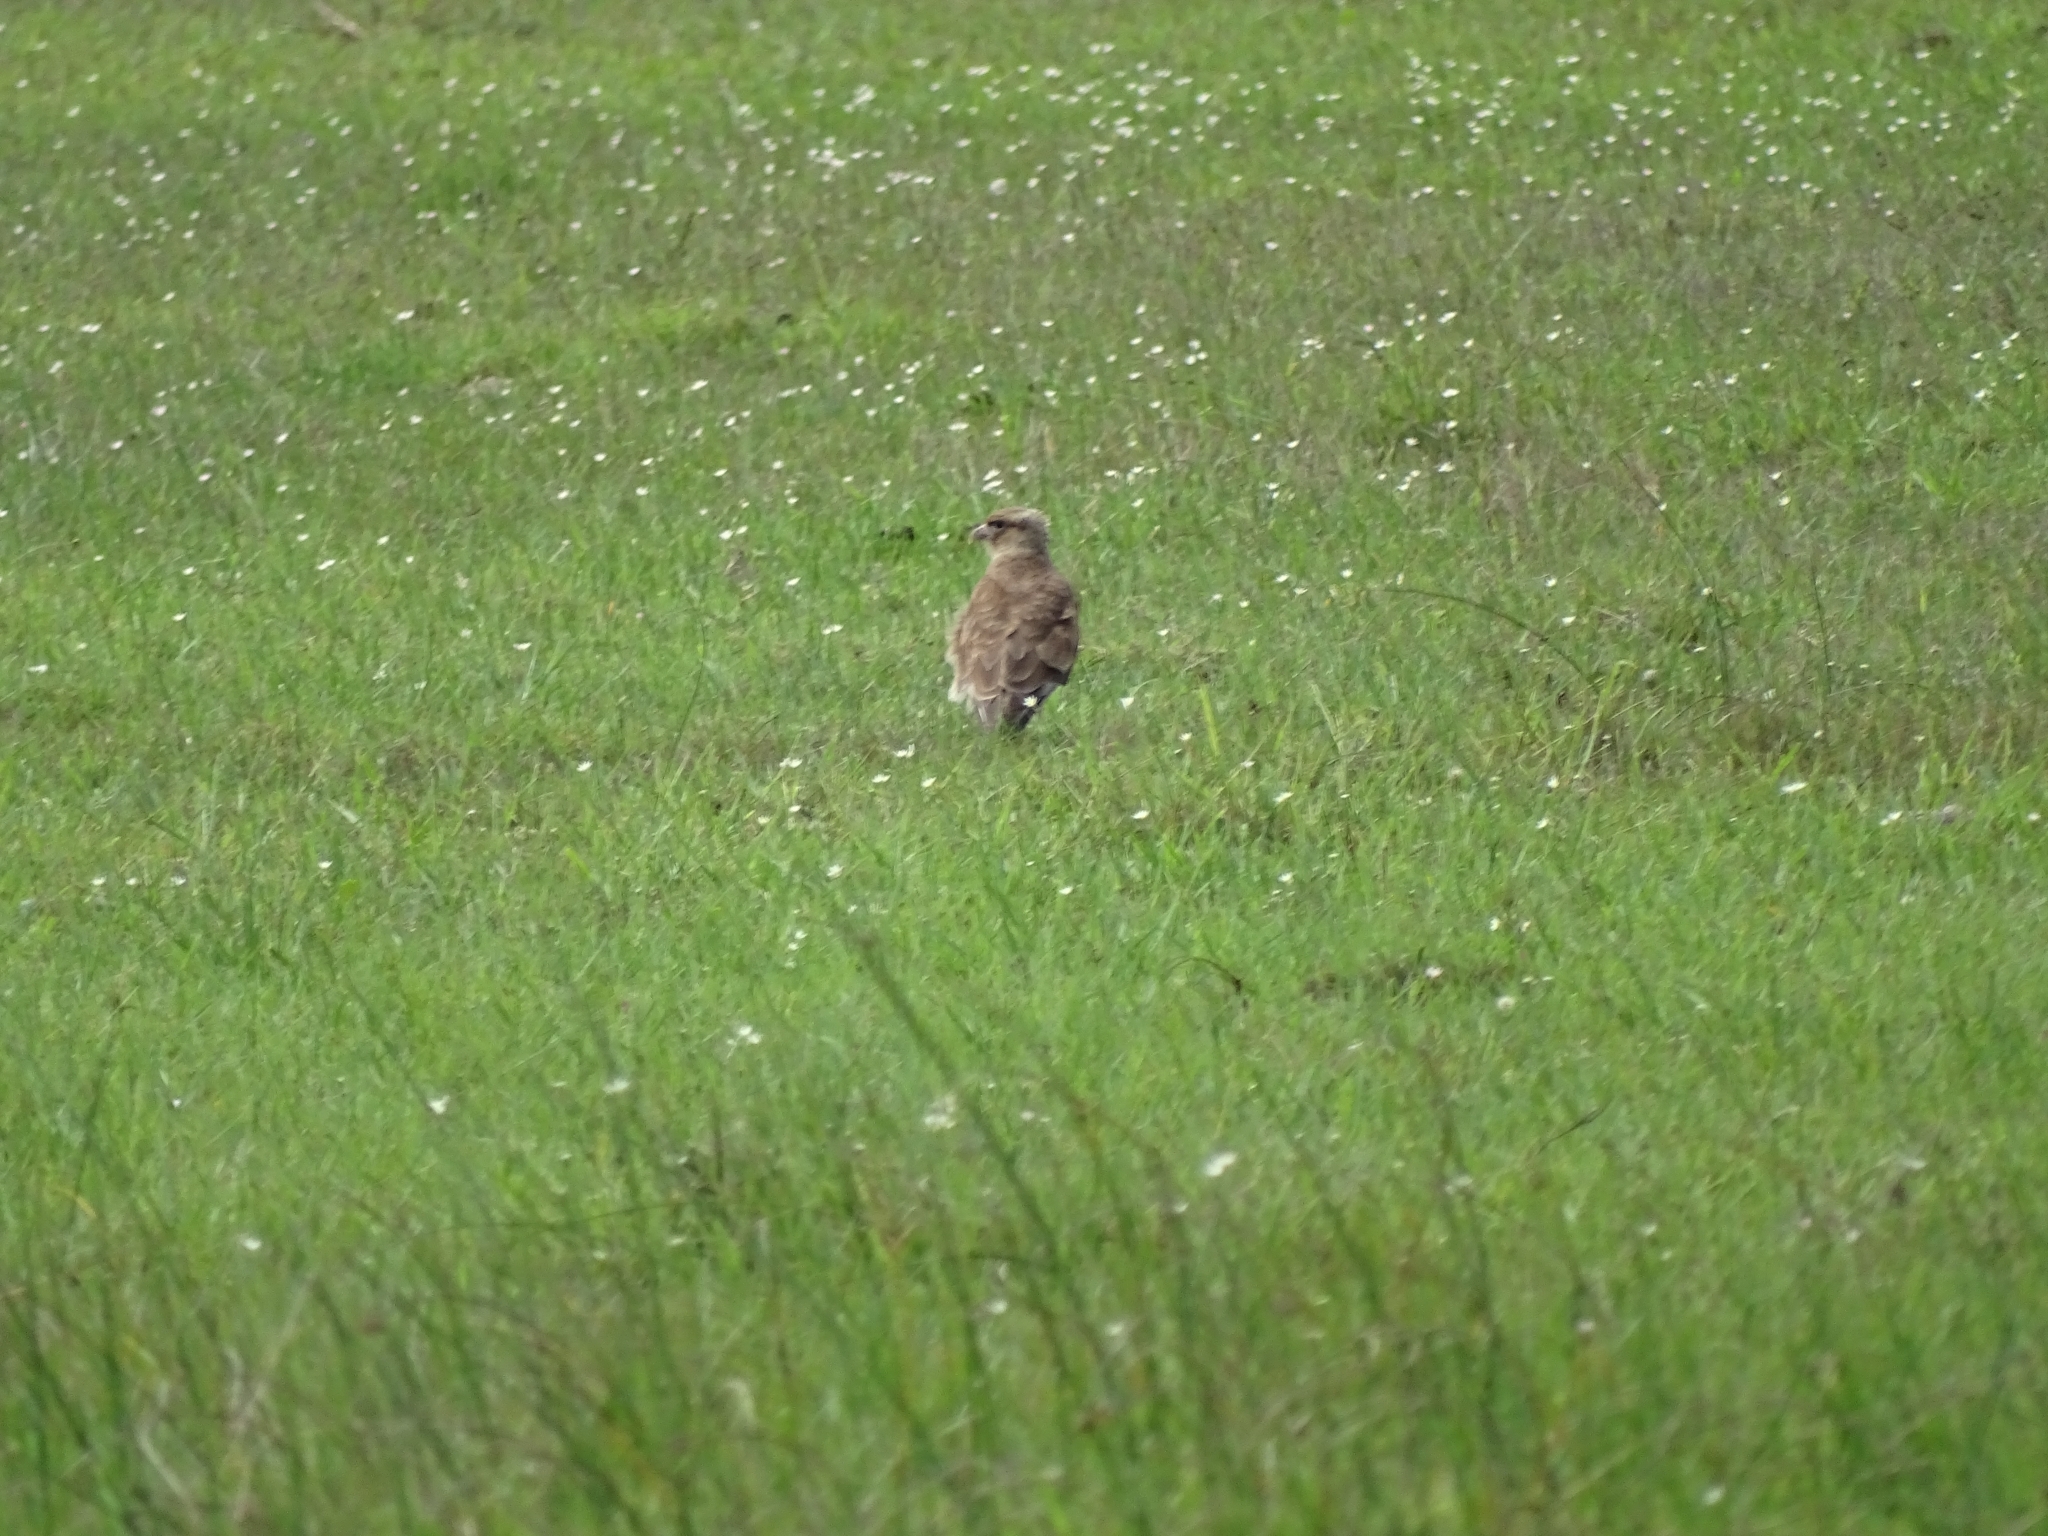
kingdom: Animalia
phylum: Chordata
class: Aves
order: Falconiformes
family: Falconidae
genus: Daptrius
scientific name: Daptrius
